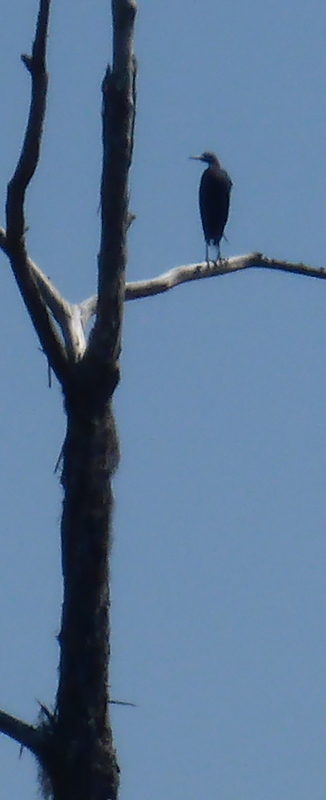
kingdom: Animalia
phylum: Chordata
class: Aves
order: Suliformes
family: Phalacrocoracidae
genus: Phalacrocorax
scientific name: Phalacrocorax auritus
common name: Double-crested cormorant
